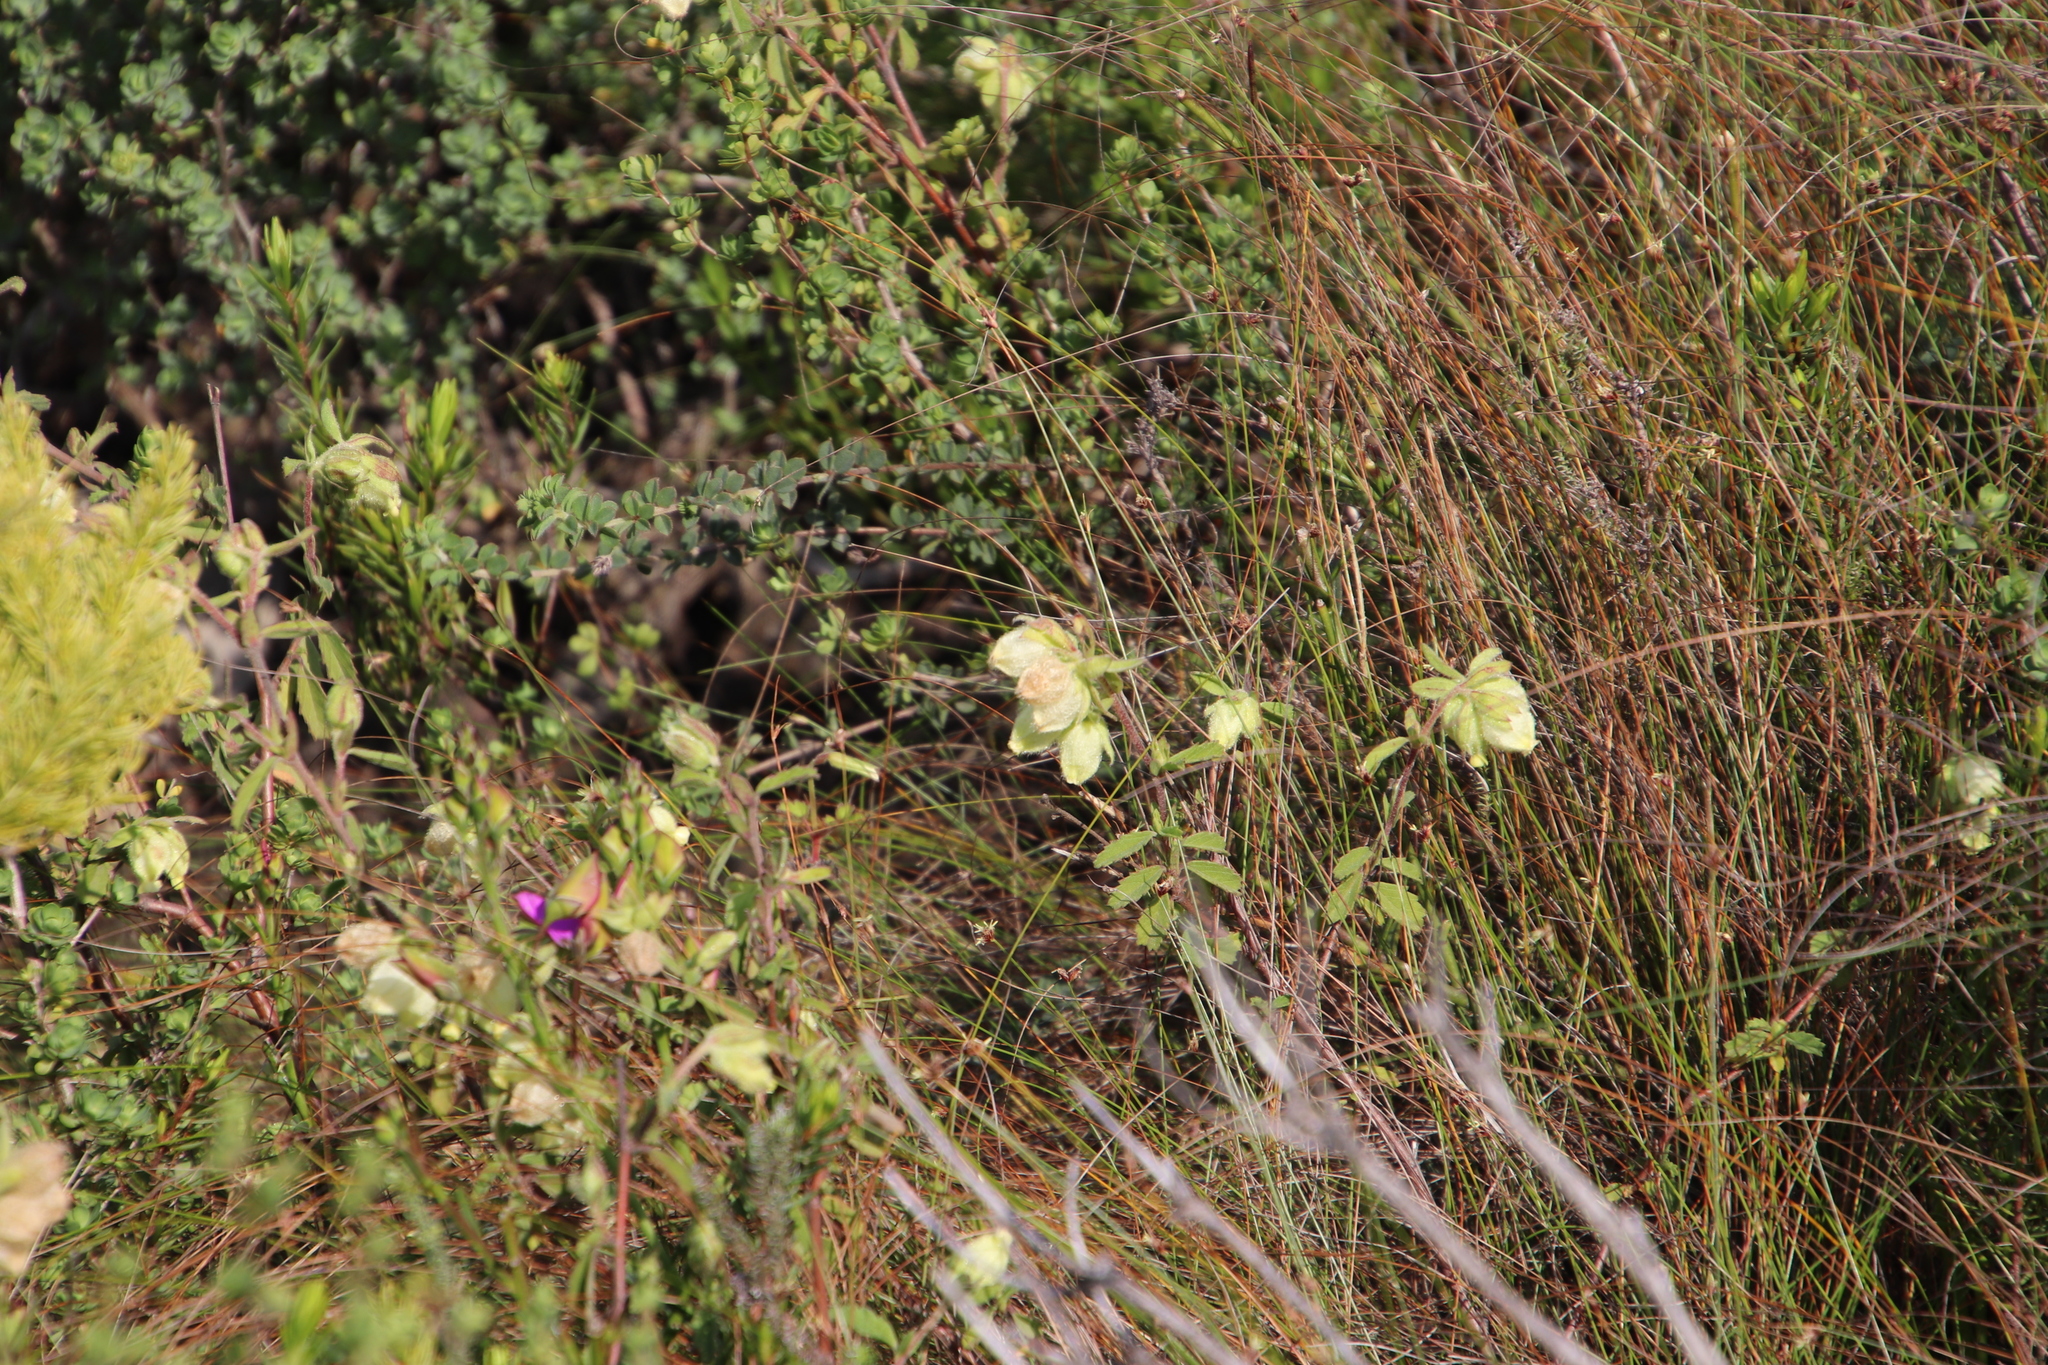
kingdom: Plantae
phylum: Tracheophyta
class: Magnoliopsida
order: Malvales
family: Malvaceae
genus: Hermannia
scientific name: Hermannia hyssopifolia
